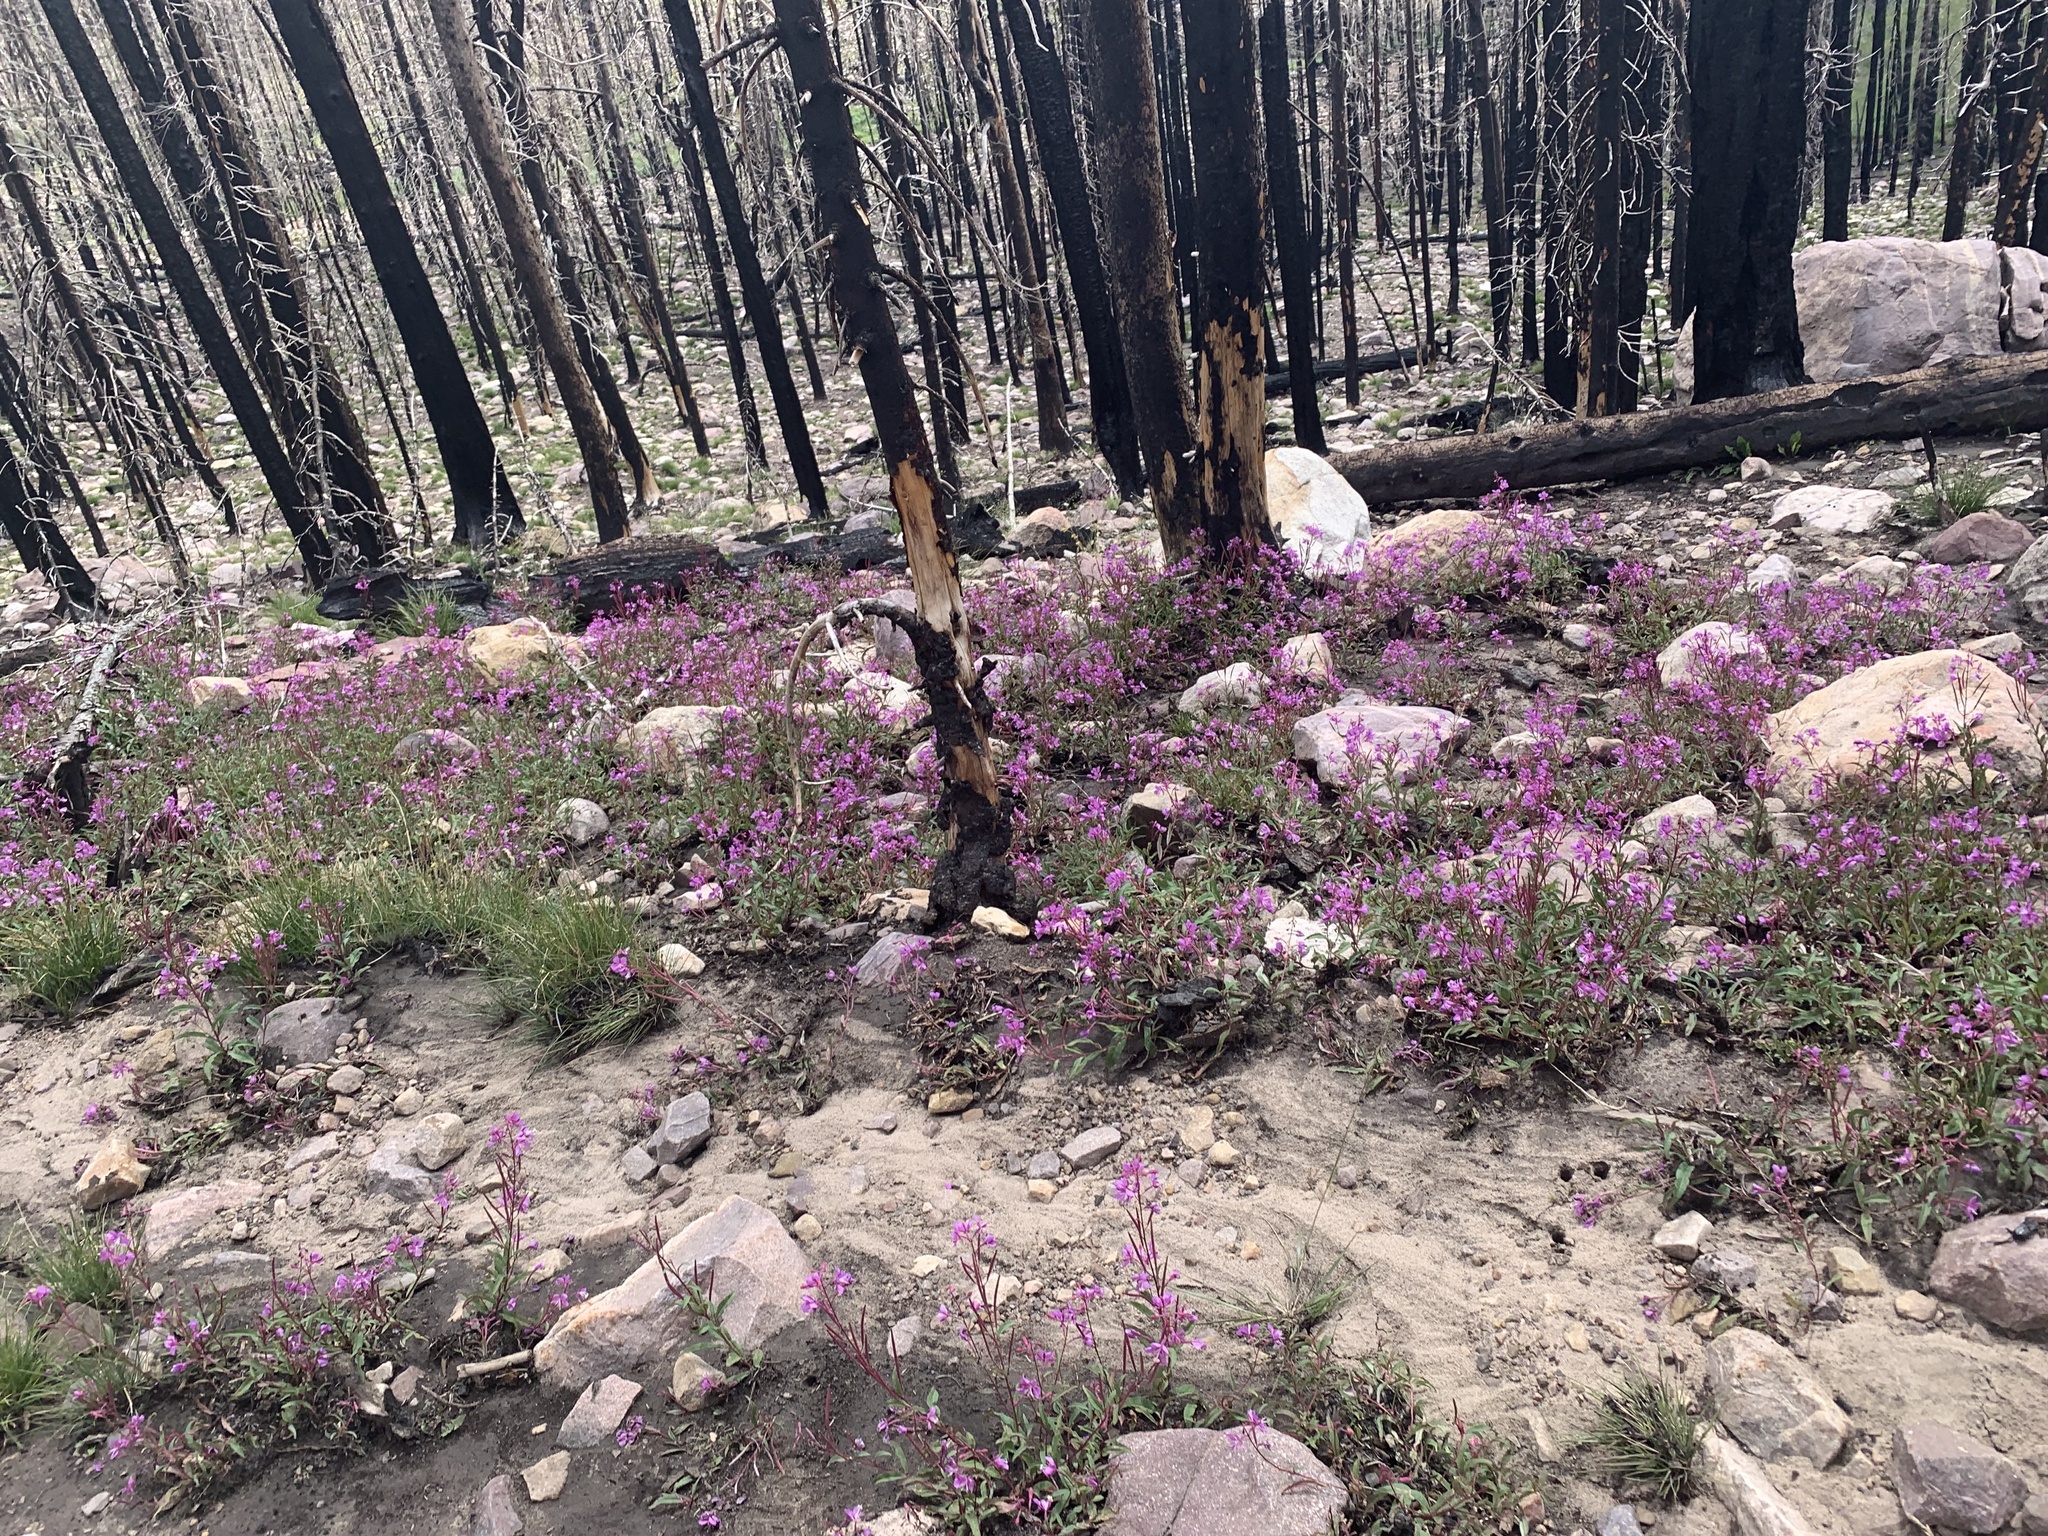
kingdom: Plantae
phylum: Tracheophyta
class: Magnoliopsida
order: Myrtales
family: Onagraceae
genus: Chamaenerion
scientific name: Chamaenerion angustifolium
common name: Fireweed
